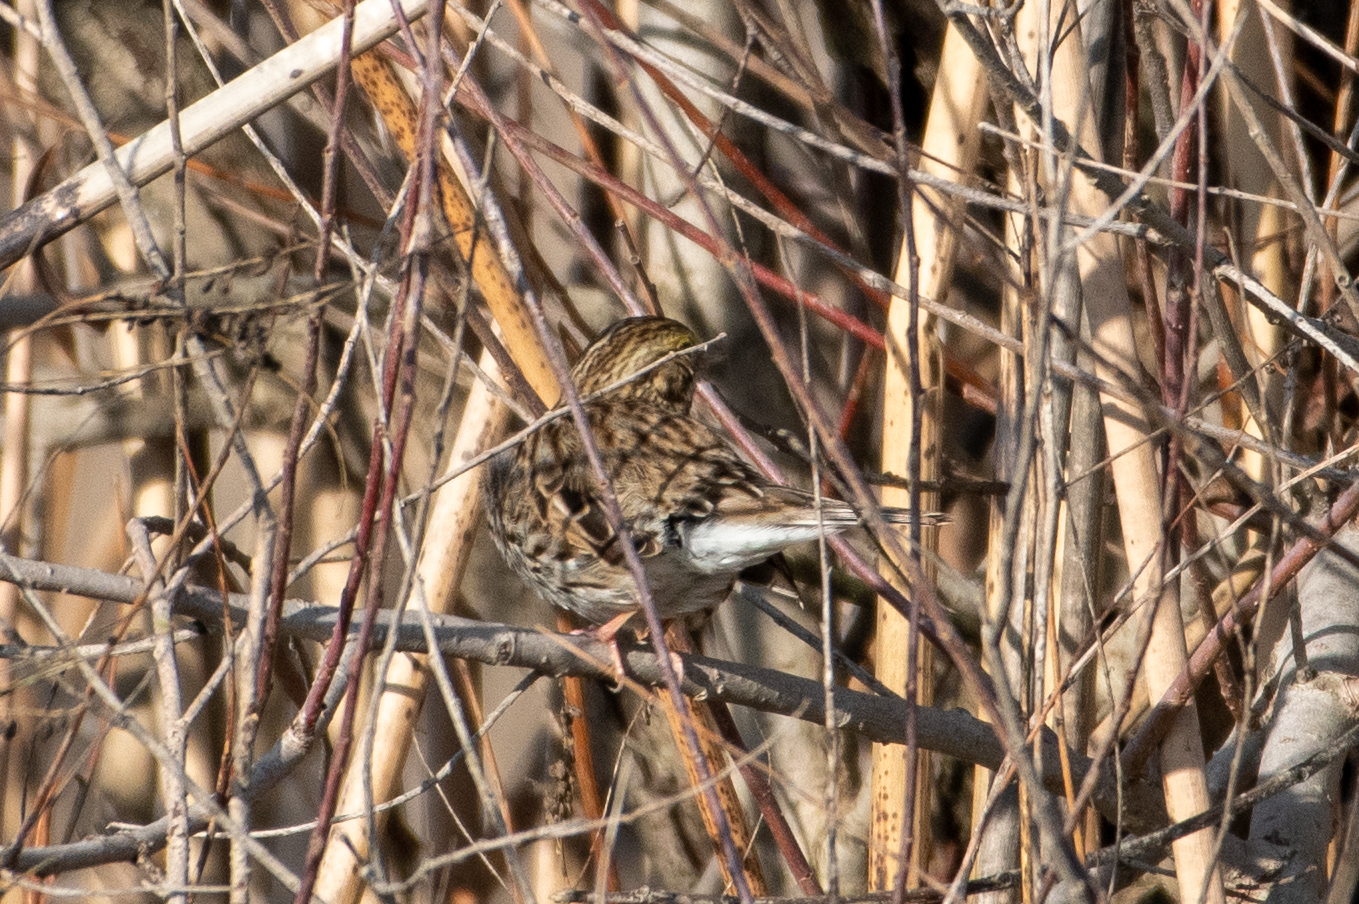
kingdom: Animalia
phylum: Chordata
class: Aves
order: Passeriformes
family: Passerellidae
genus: Passerculus
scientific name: Passerculus sandwichensis
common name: Savannah sparrow
